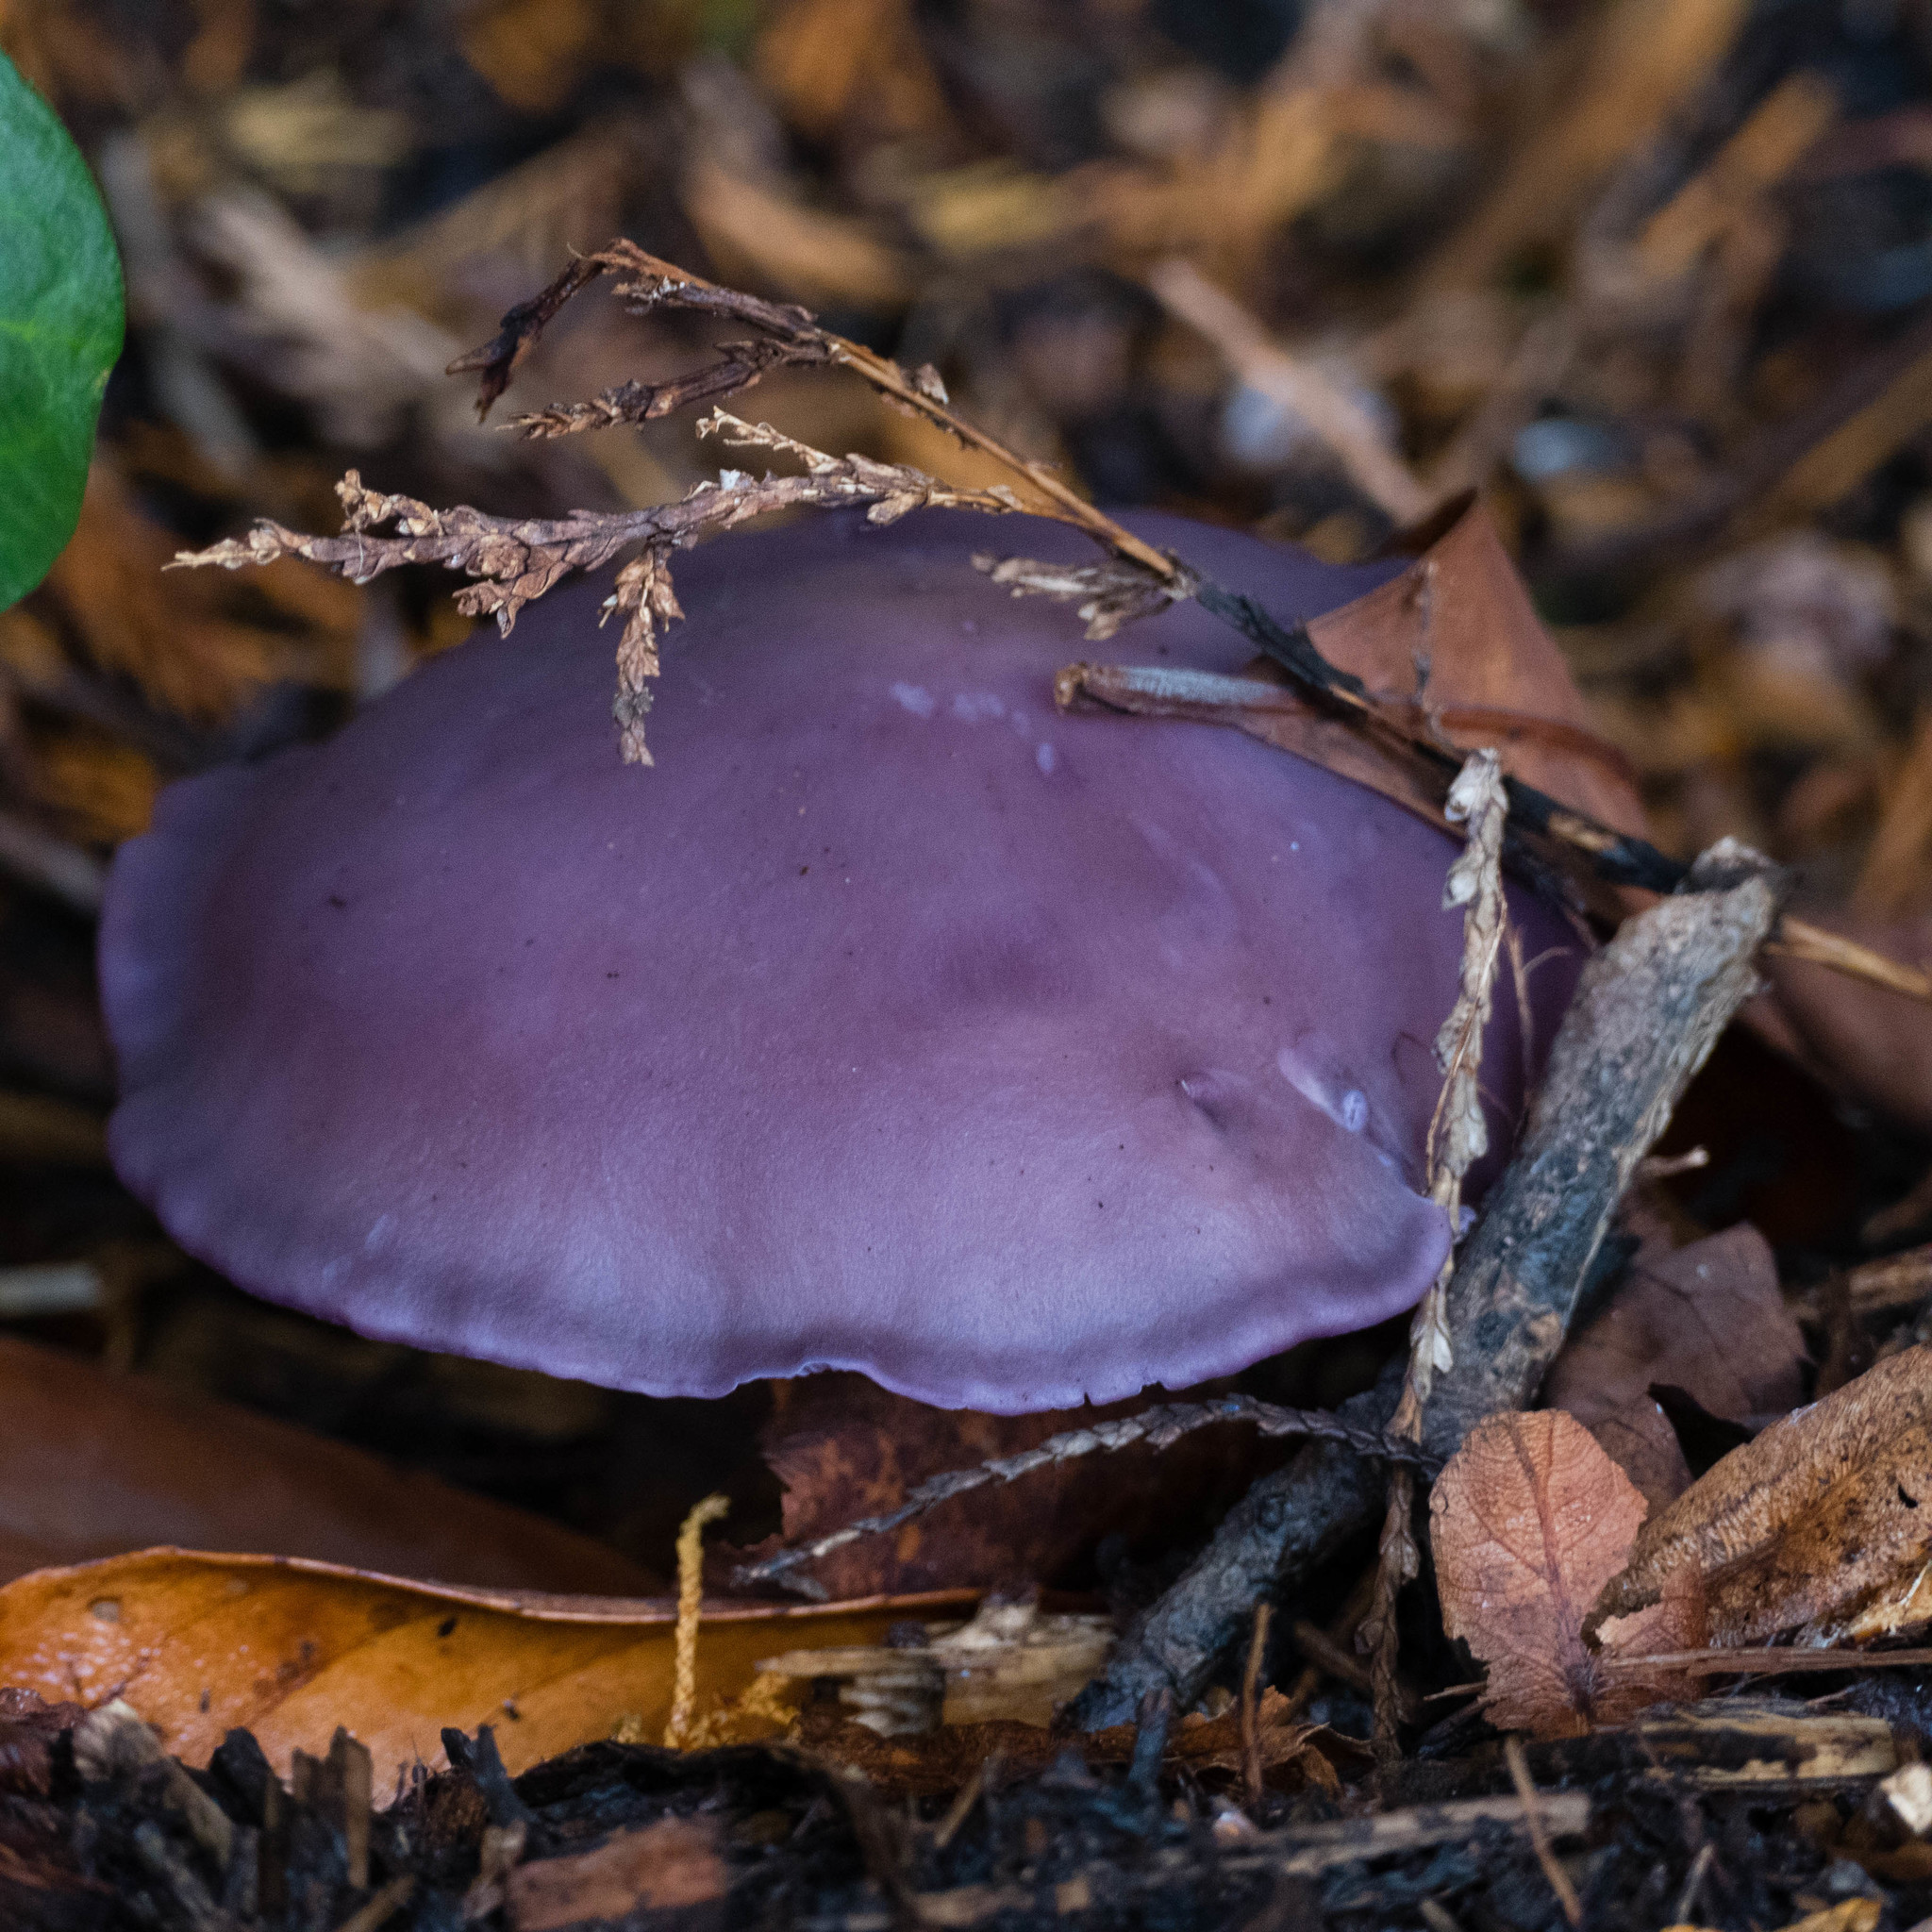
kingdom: Fungi
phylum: Basidiomycota
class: Agaricomycetes
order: Agaricales
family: Tricholomataceae
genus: Collybia
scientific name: Collybia
